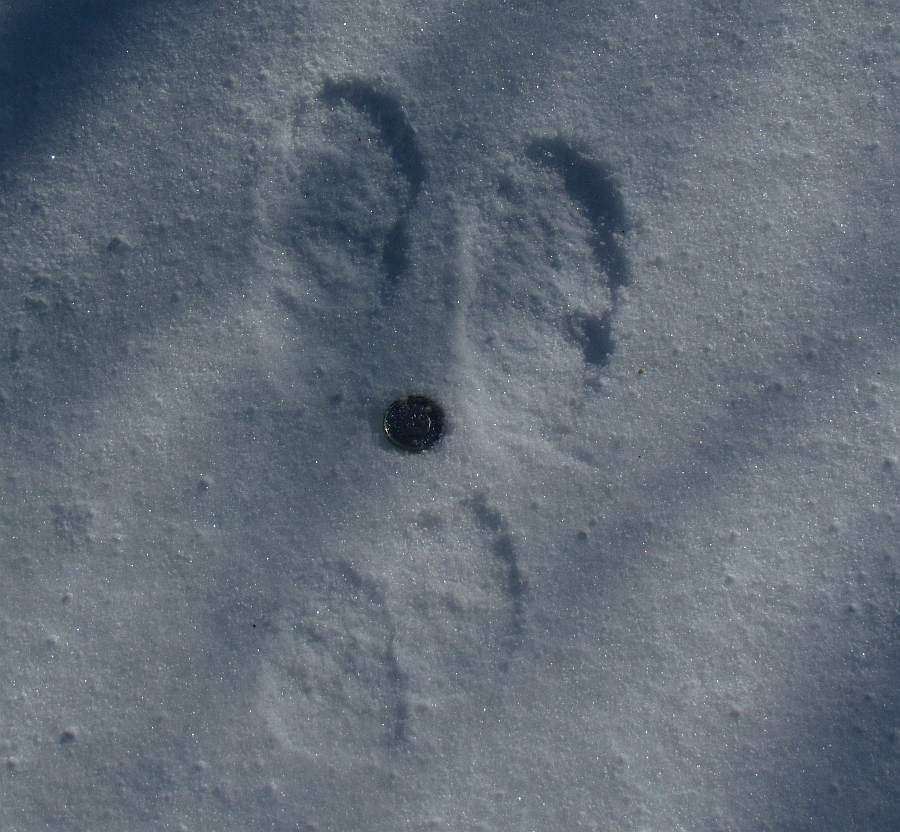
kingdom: Animalia
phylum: Chordata
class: Mammalia
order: Lagomorpha
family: Leporidae
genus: Lepus
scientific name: Lepus americanus
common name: Snowshoe hare
